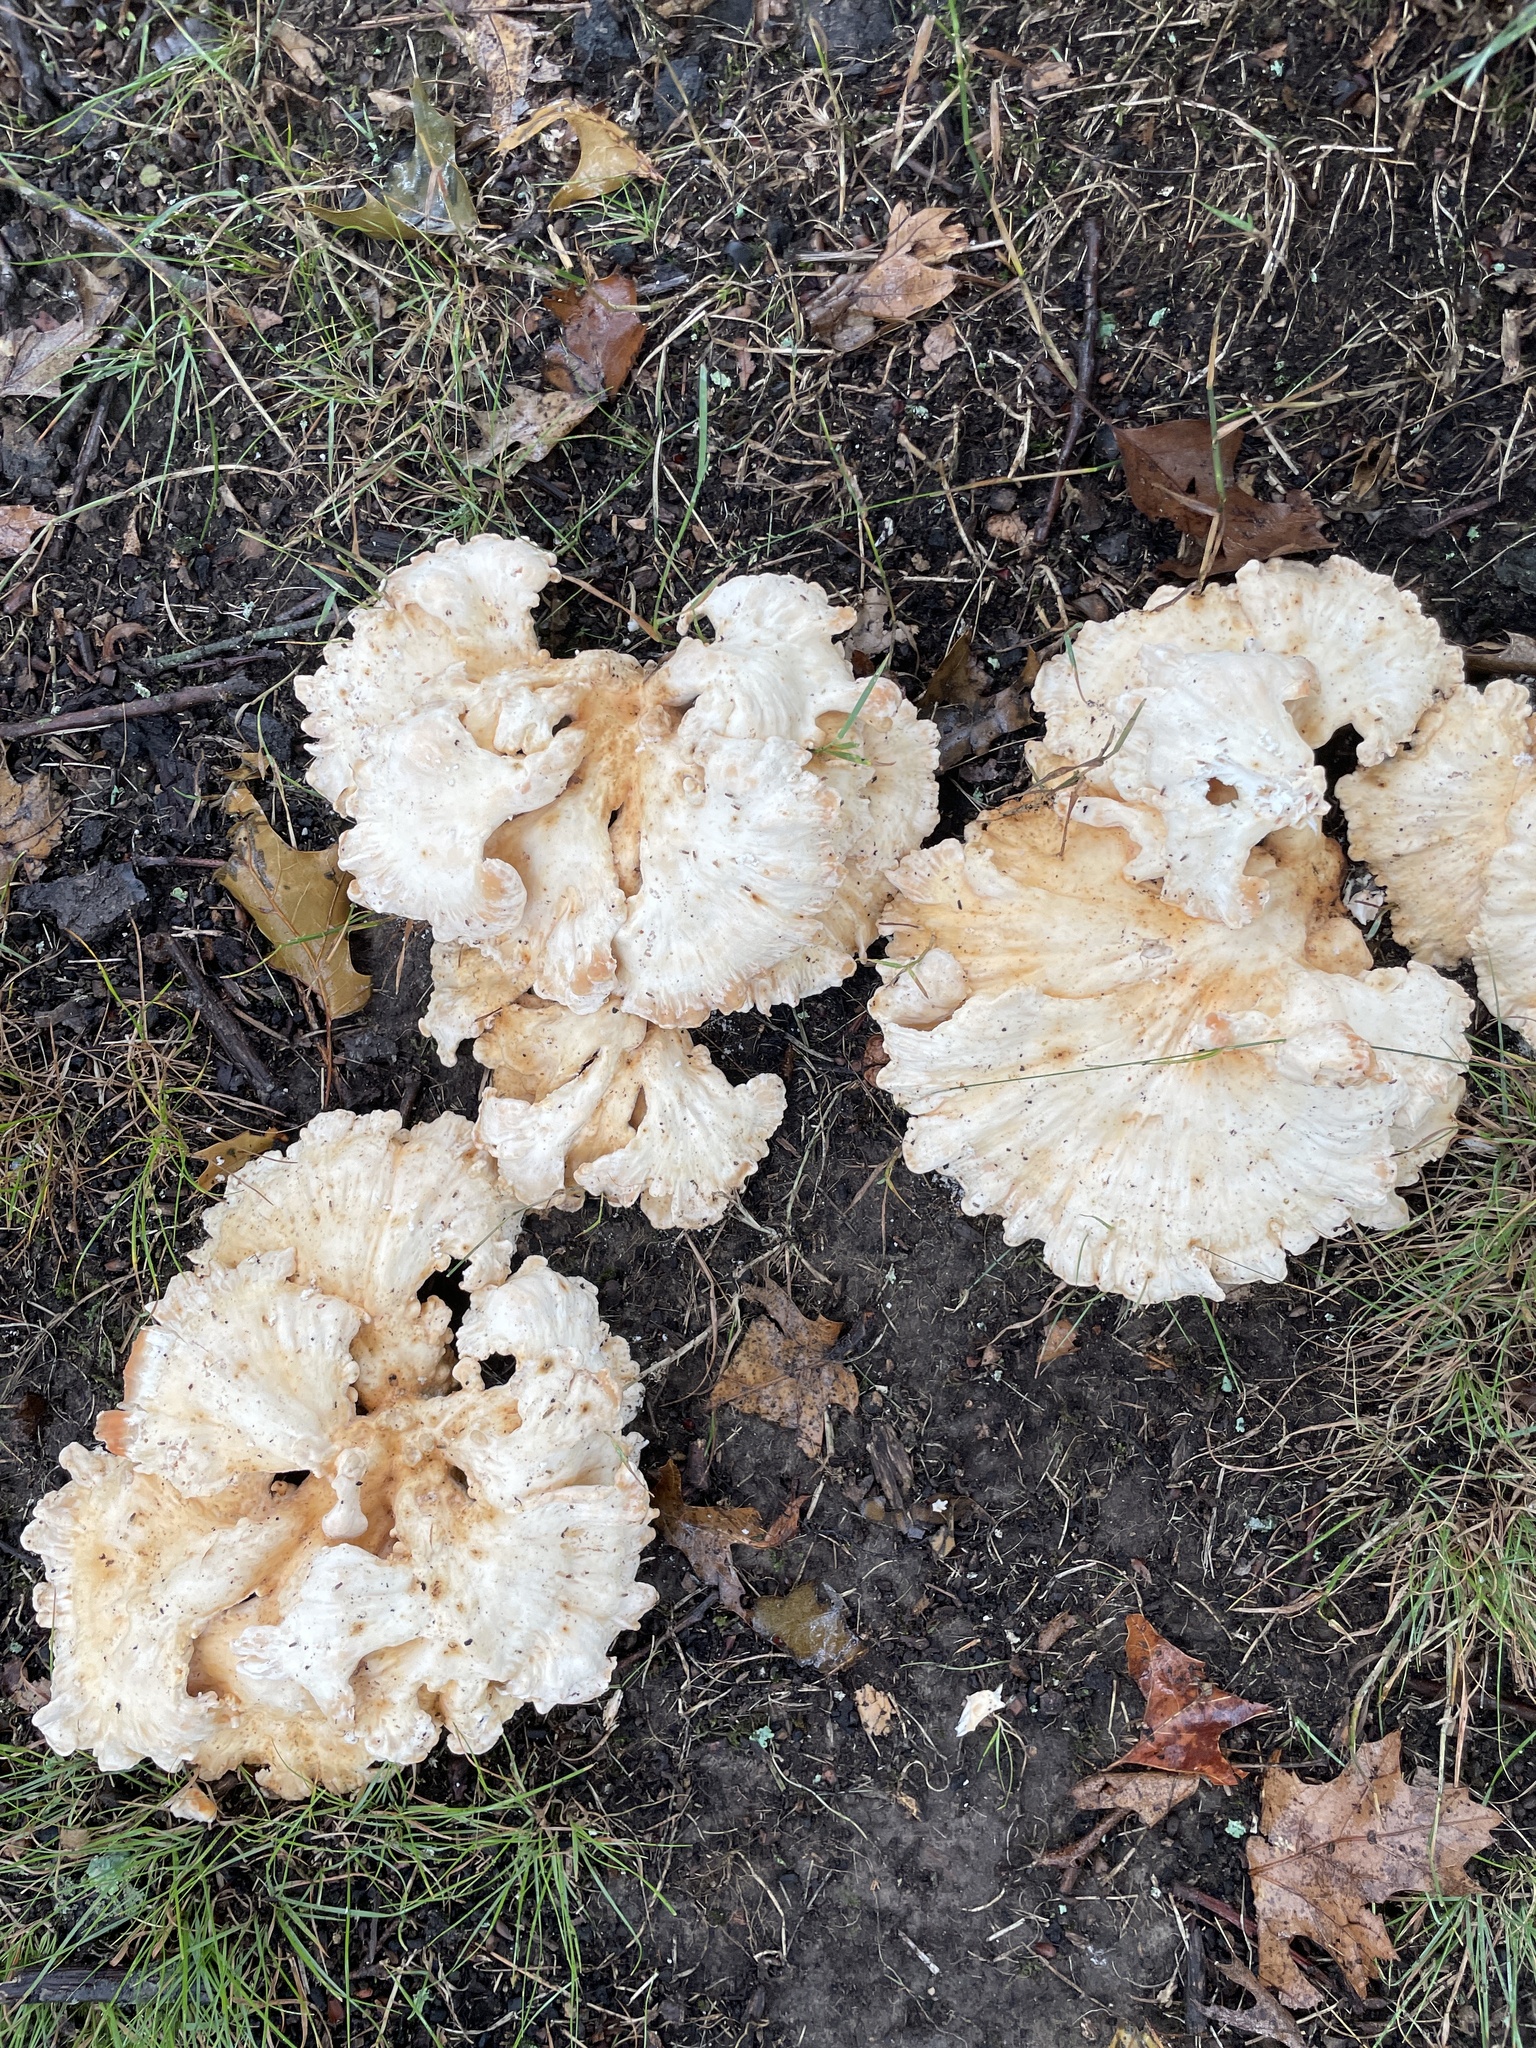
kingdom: Fungi
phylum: Basidiomycota
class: Agaricomycetes
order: Polyporales
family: Laetiporaceae
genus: Laetiporus
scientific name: Laetiporus sulphureus
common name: Chicken of the woods
